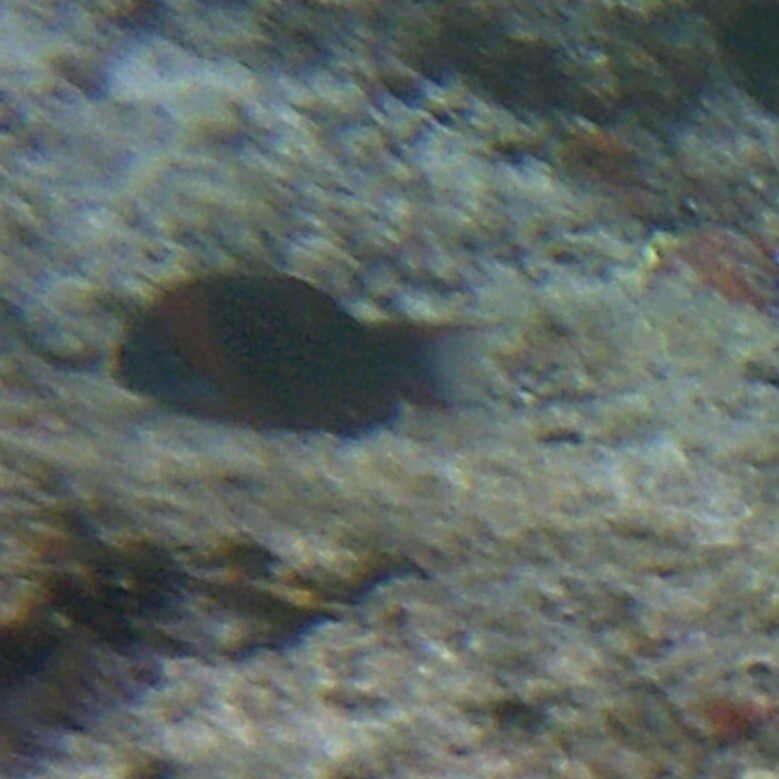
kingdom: Animalia
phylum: Chordata
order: Perciformes
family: Labridae
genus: Thalassoma
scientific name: Thalassoma duperrey
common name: Saddle wrasse
